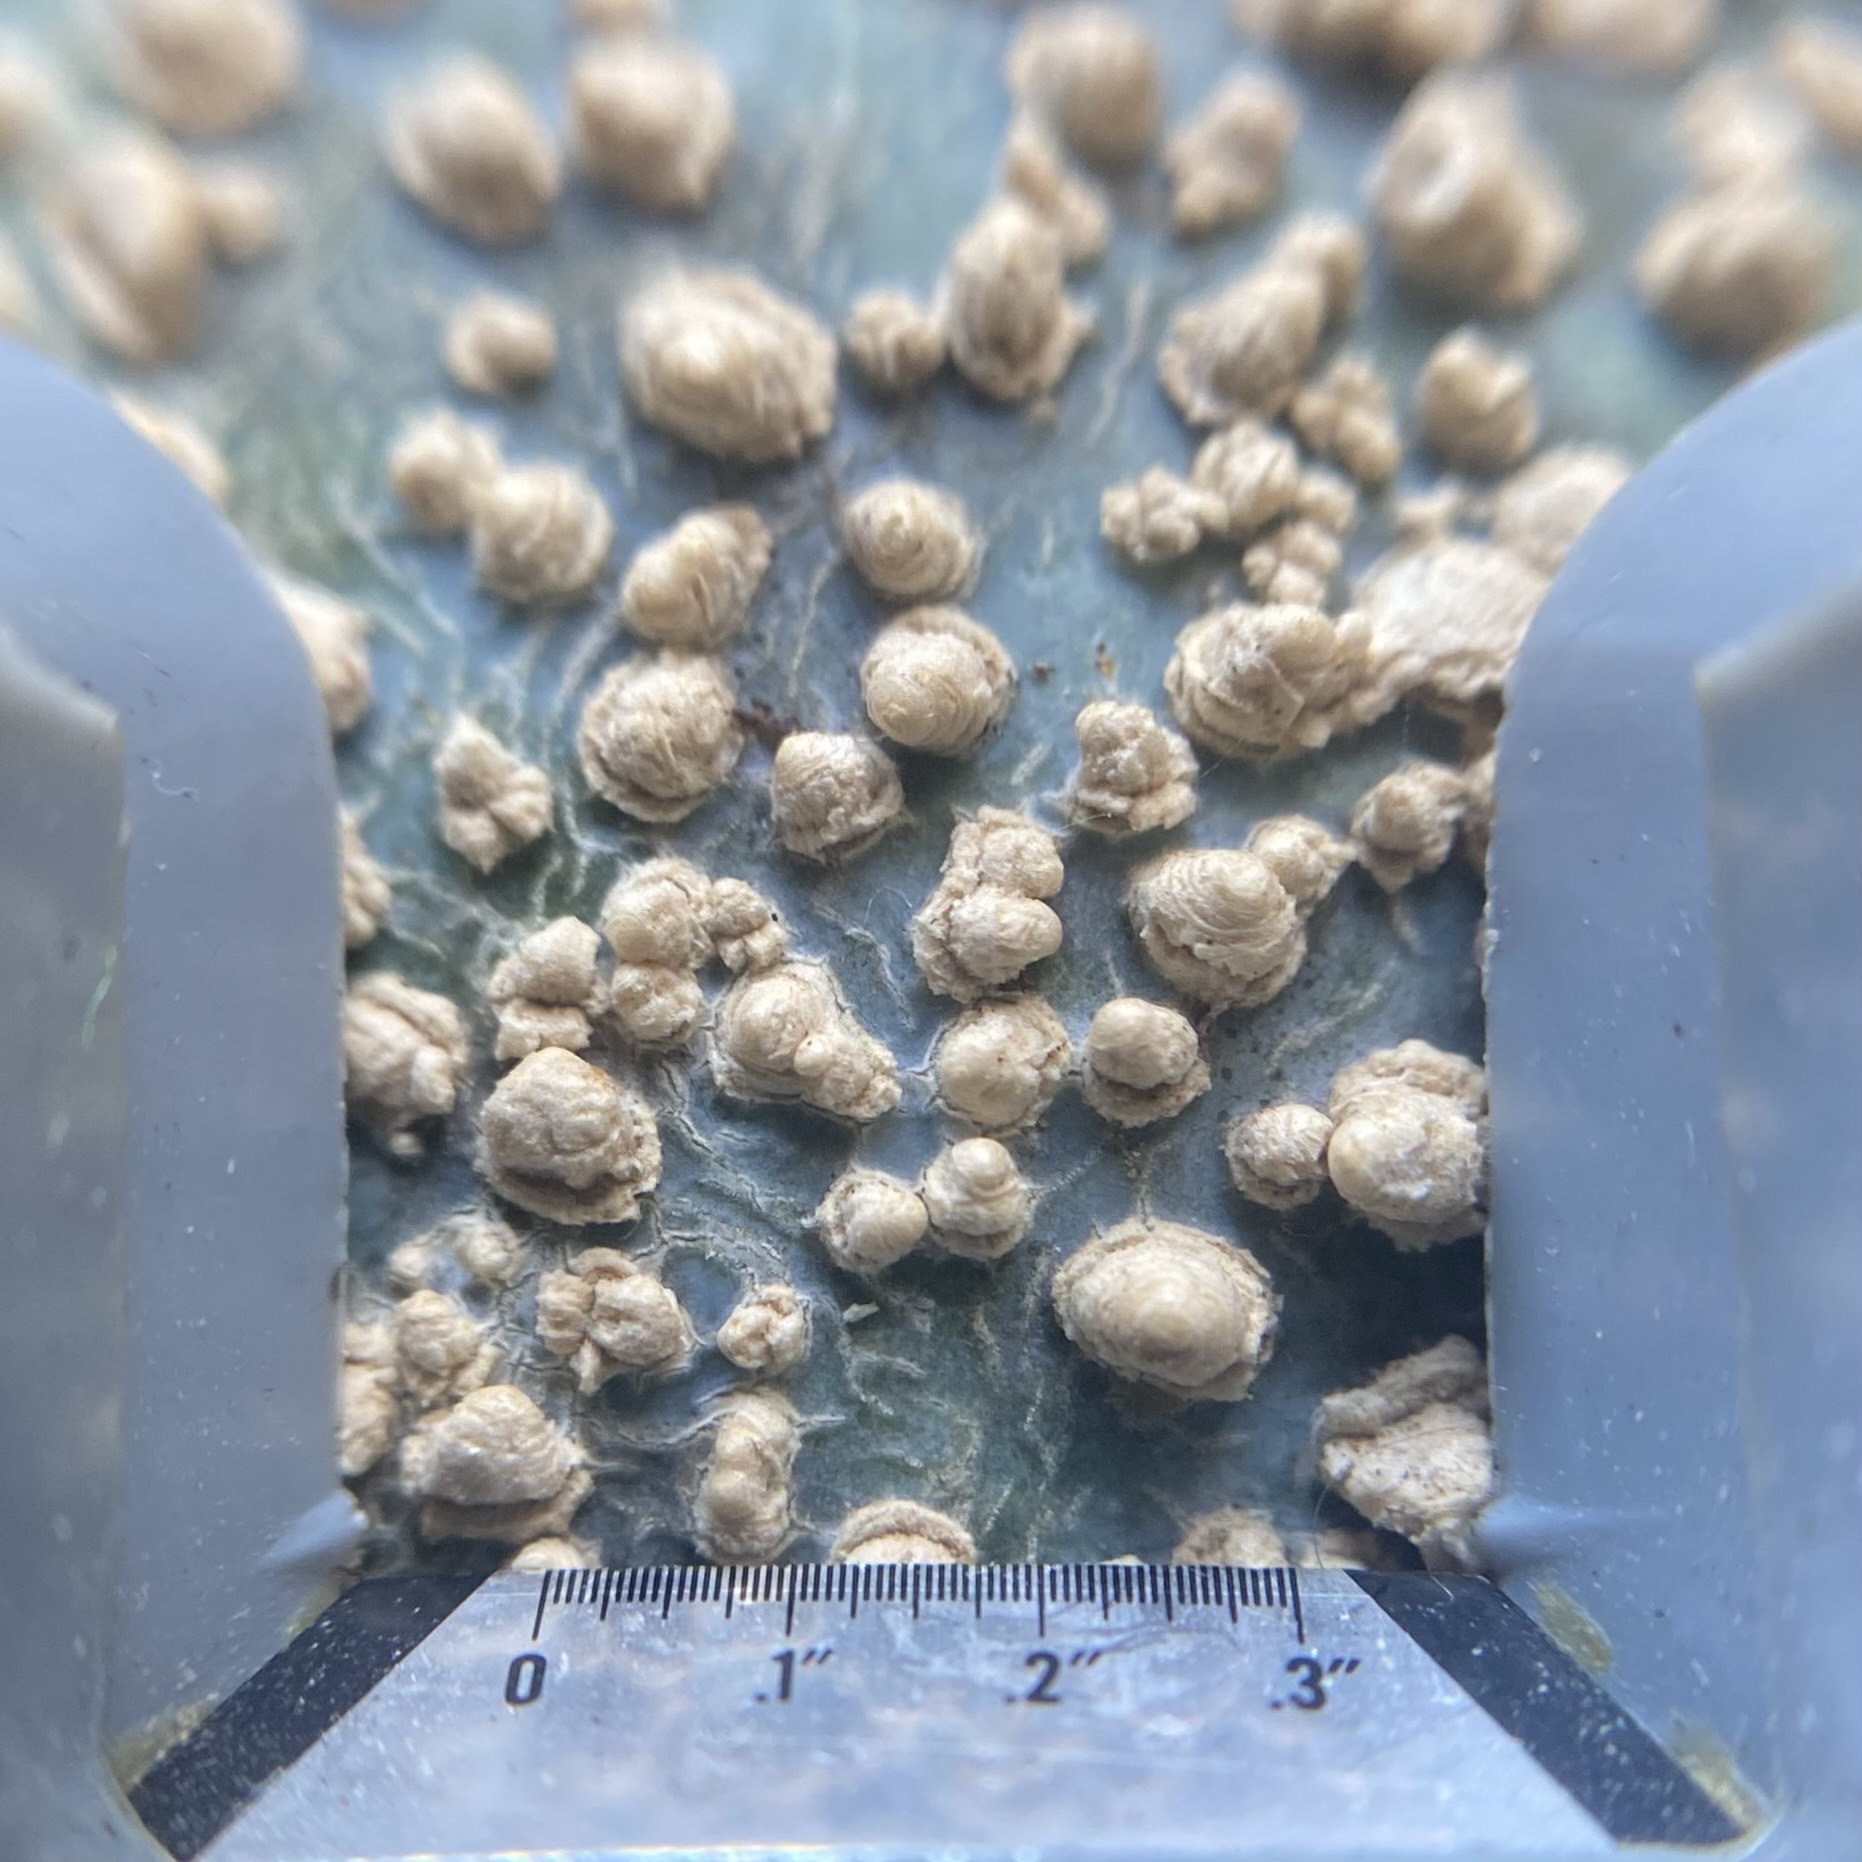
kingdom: Plantae
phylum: Tracheophyta
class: Magnoliopsida
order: Gentianales
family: Apocynaceae
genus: Tabernaemontana
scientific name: Tabernaemontana elegans
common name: Toadtree
